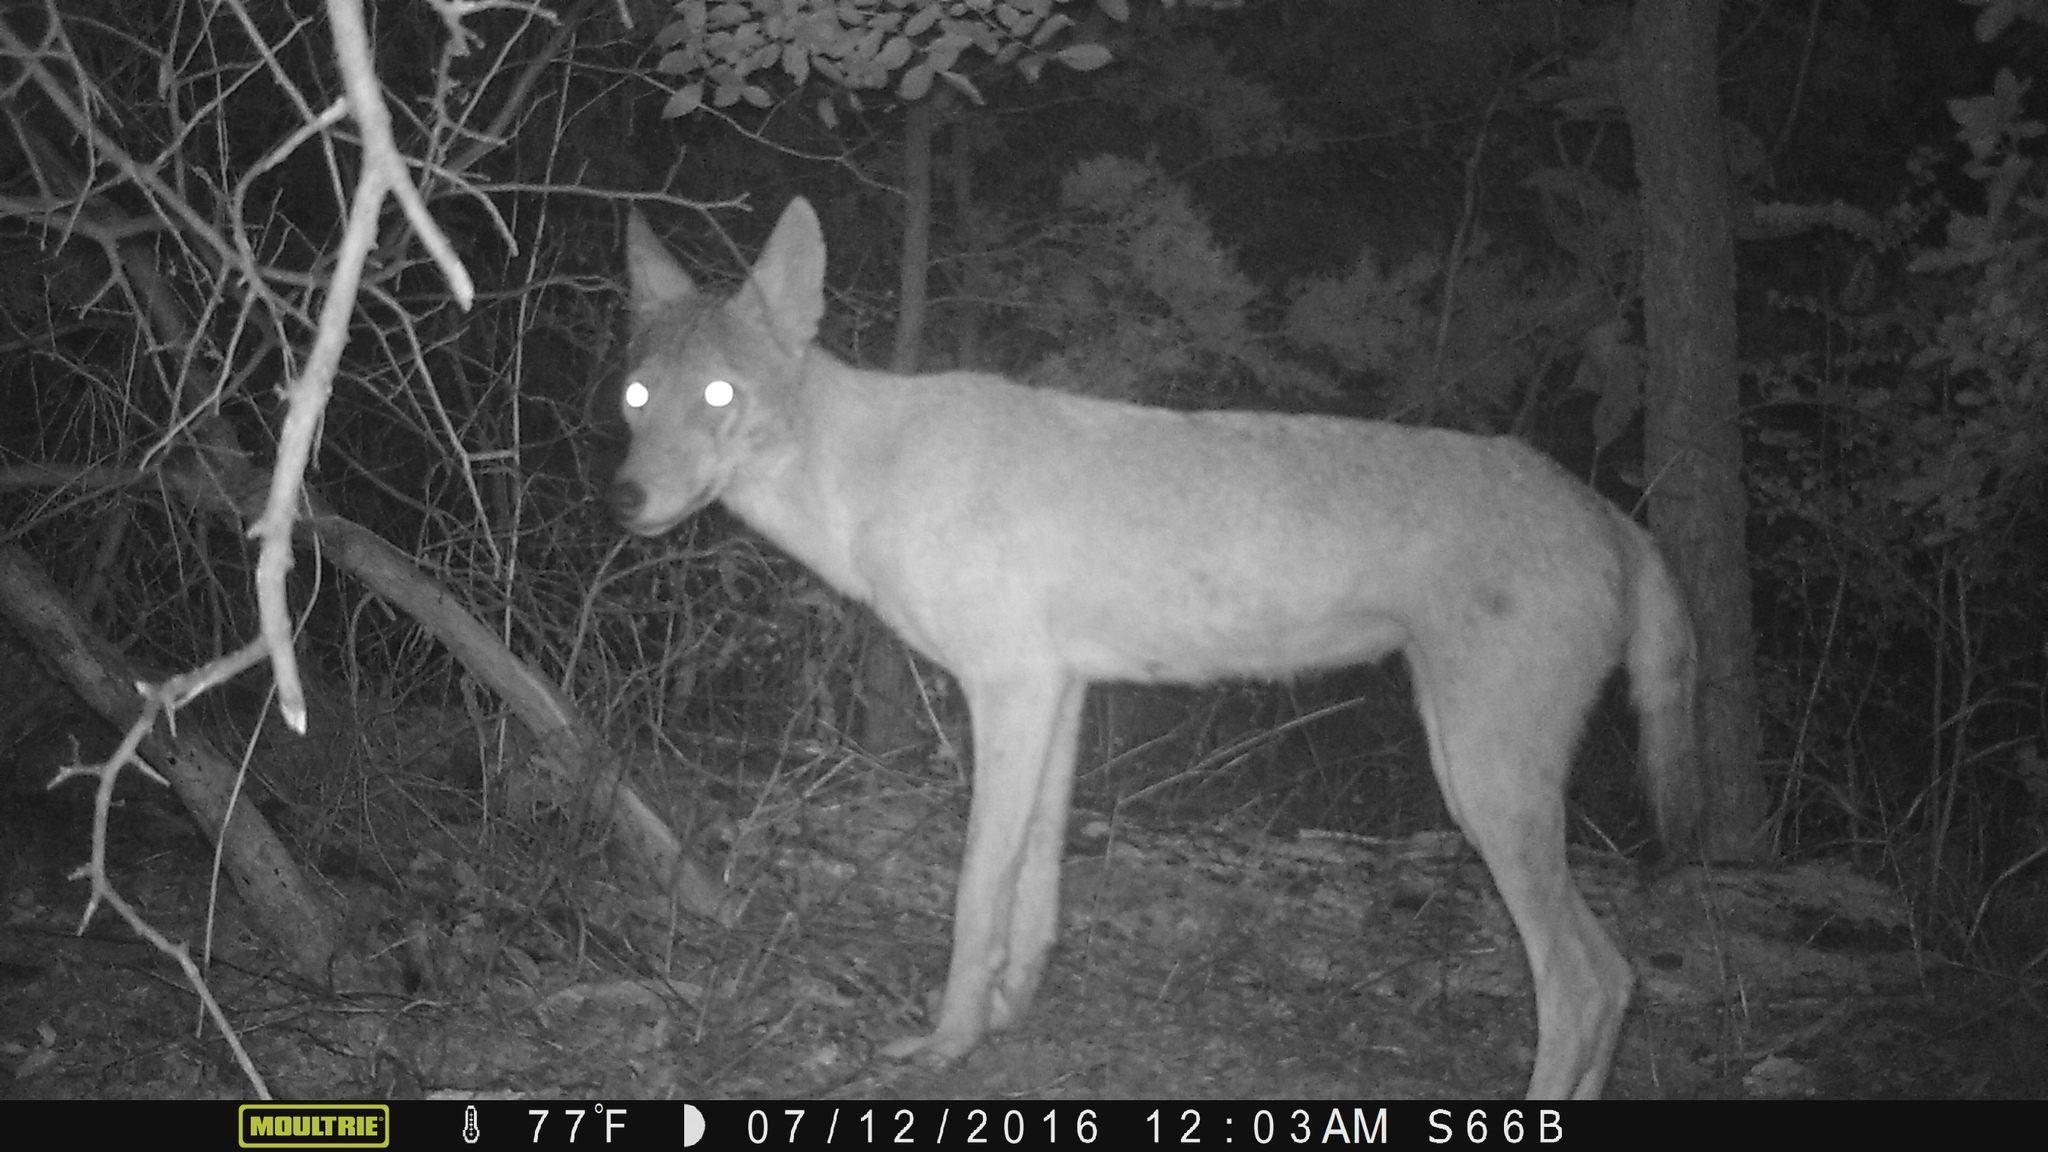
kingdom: Animalia
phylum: Chordata
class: Mammalia
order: Carnivora
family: Canidae
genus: Canis
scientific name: Canis latrans
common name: Coyote
